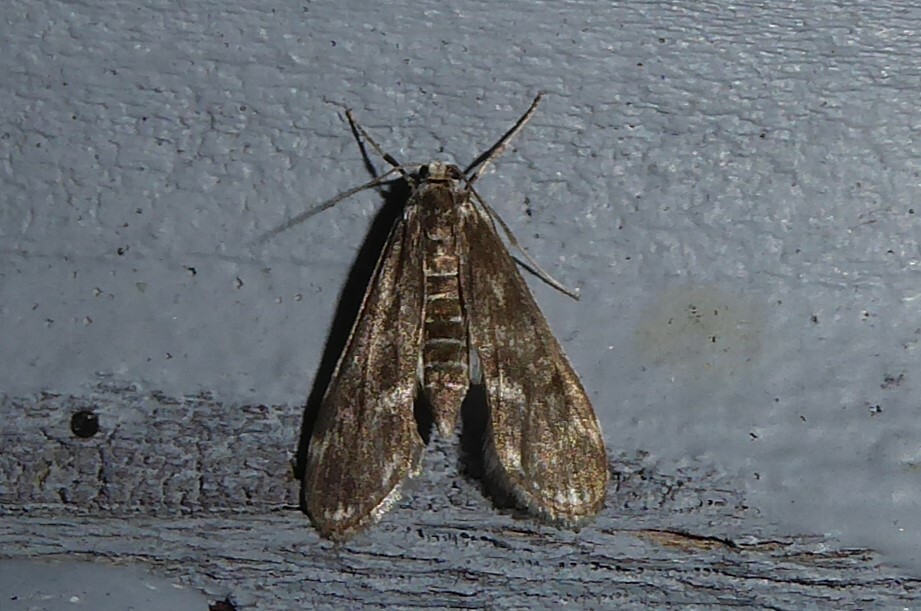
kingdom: Animalia
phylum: Arthropoda
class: Insecta
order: Lepidoptera
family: Crambidae
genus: Hygraula
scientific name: Hygraula nitens
